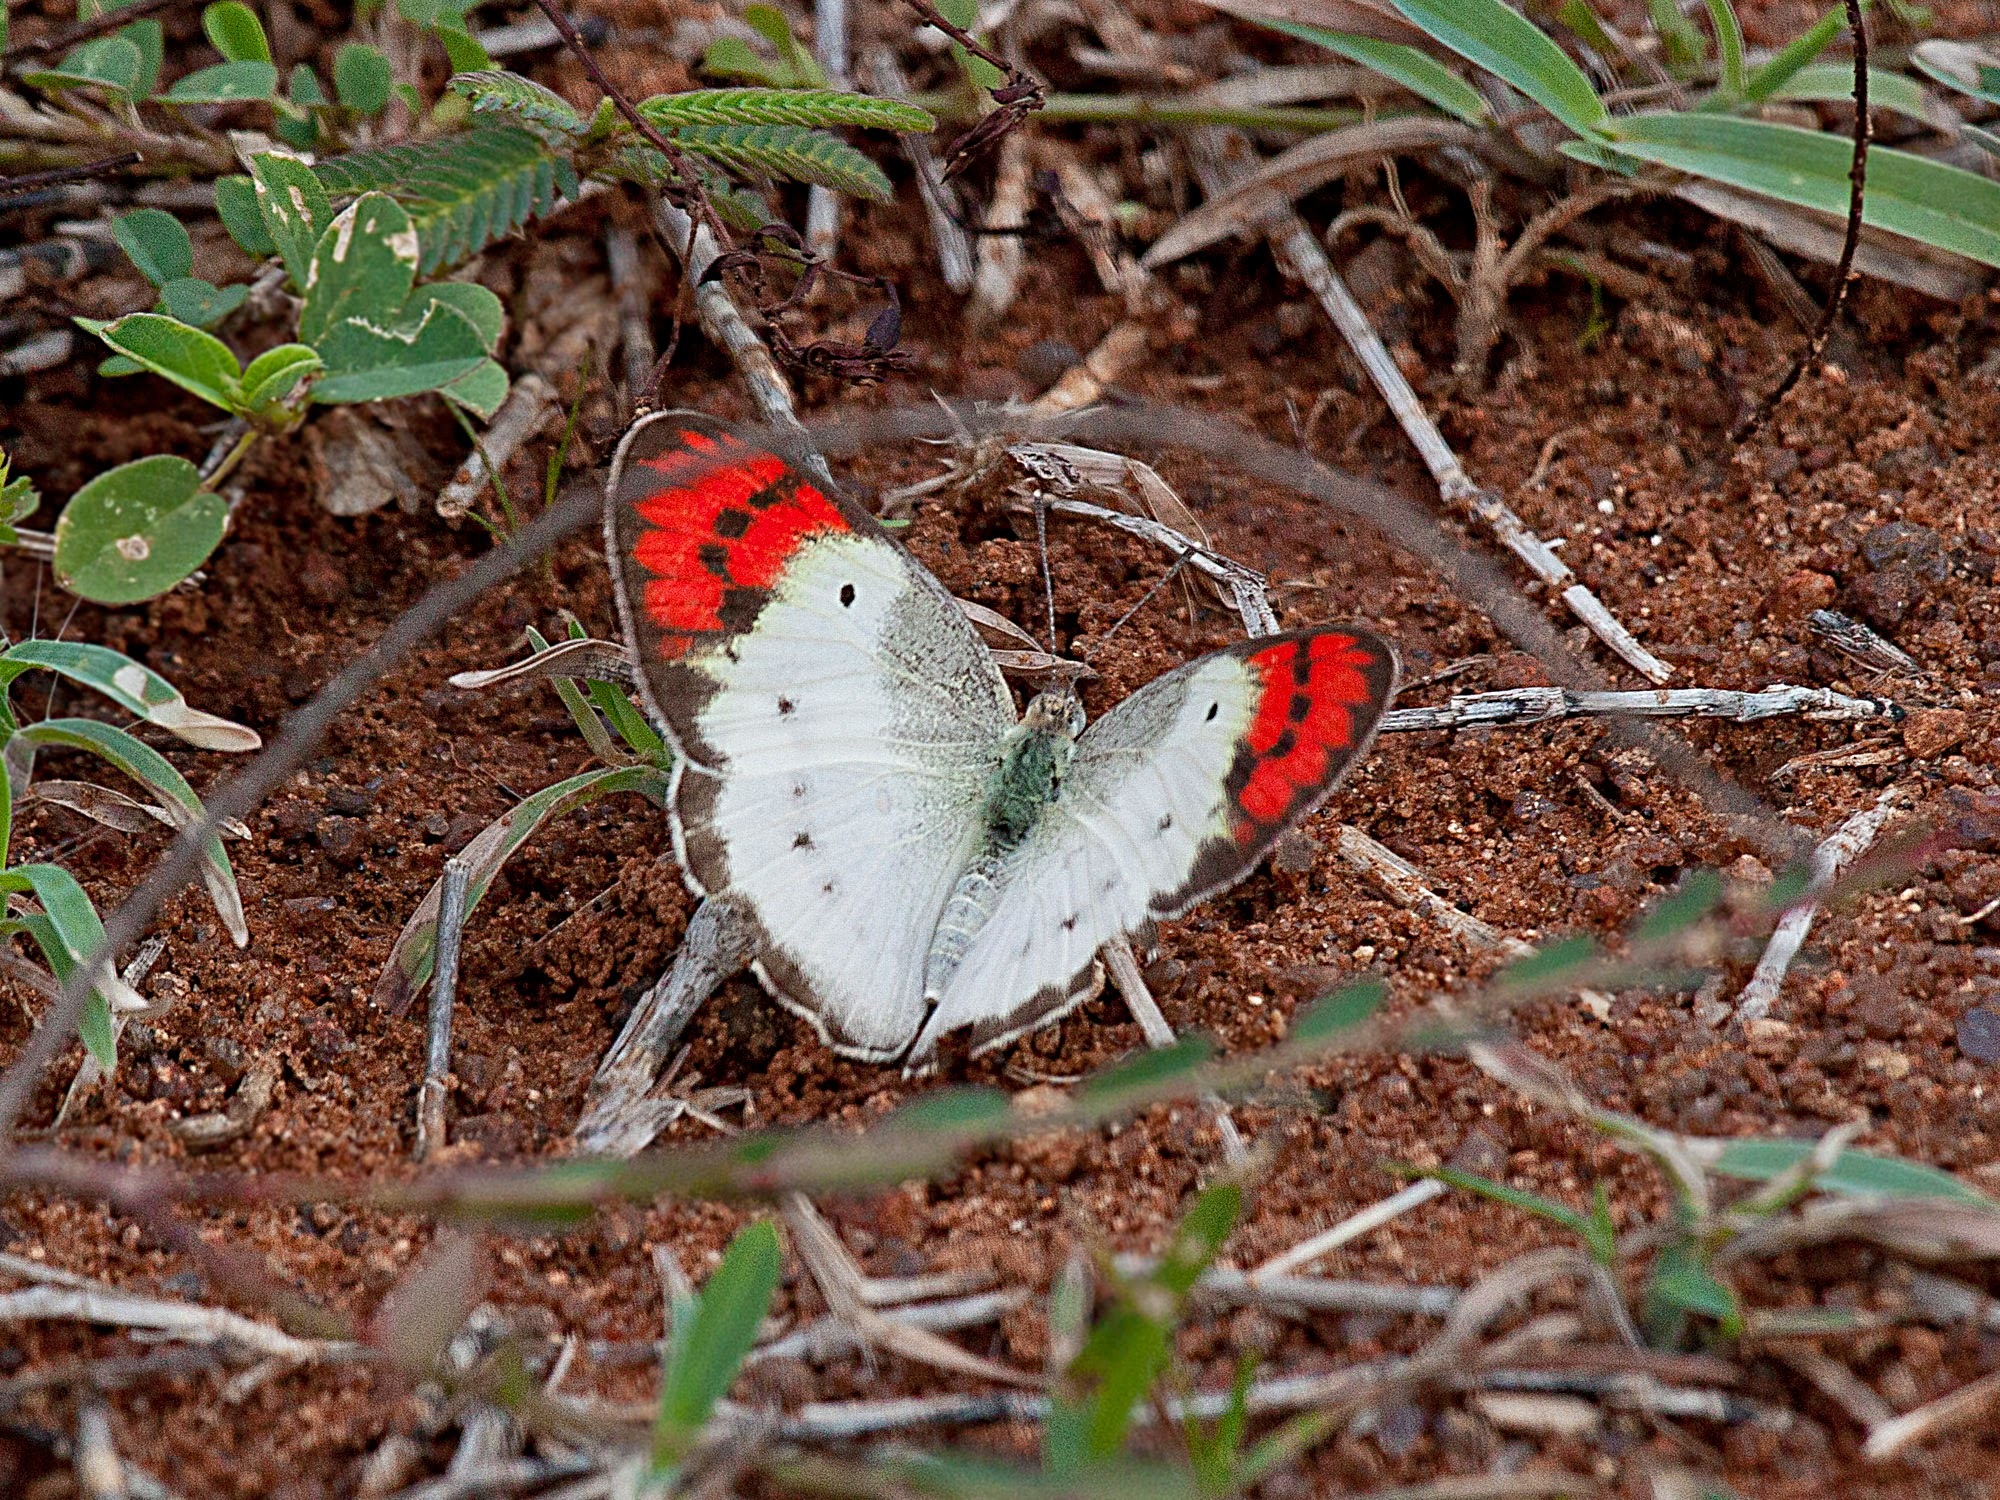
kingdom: Animalia
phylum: Arthropoda
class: Insecta
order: Lepidoptera
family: Pieridae
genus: Colotis
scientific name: Colotis danae
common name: Crimson tip
